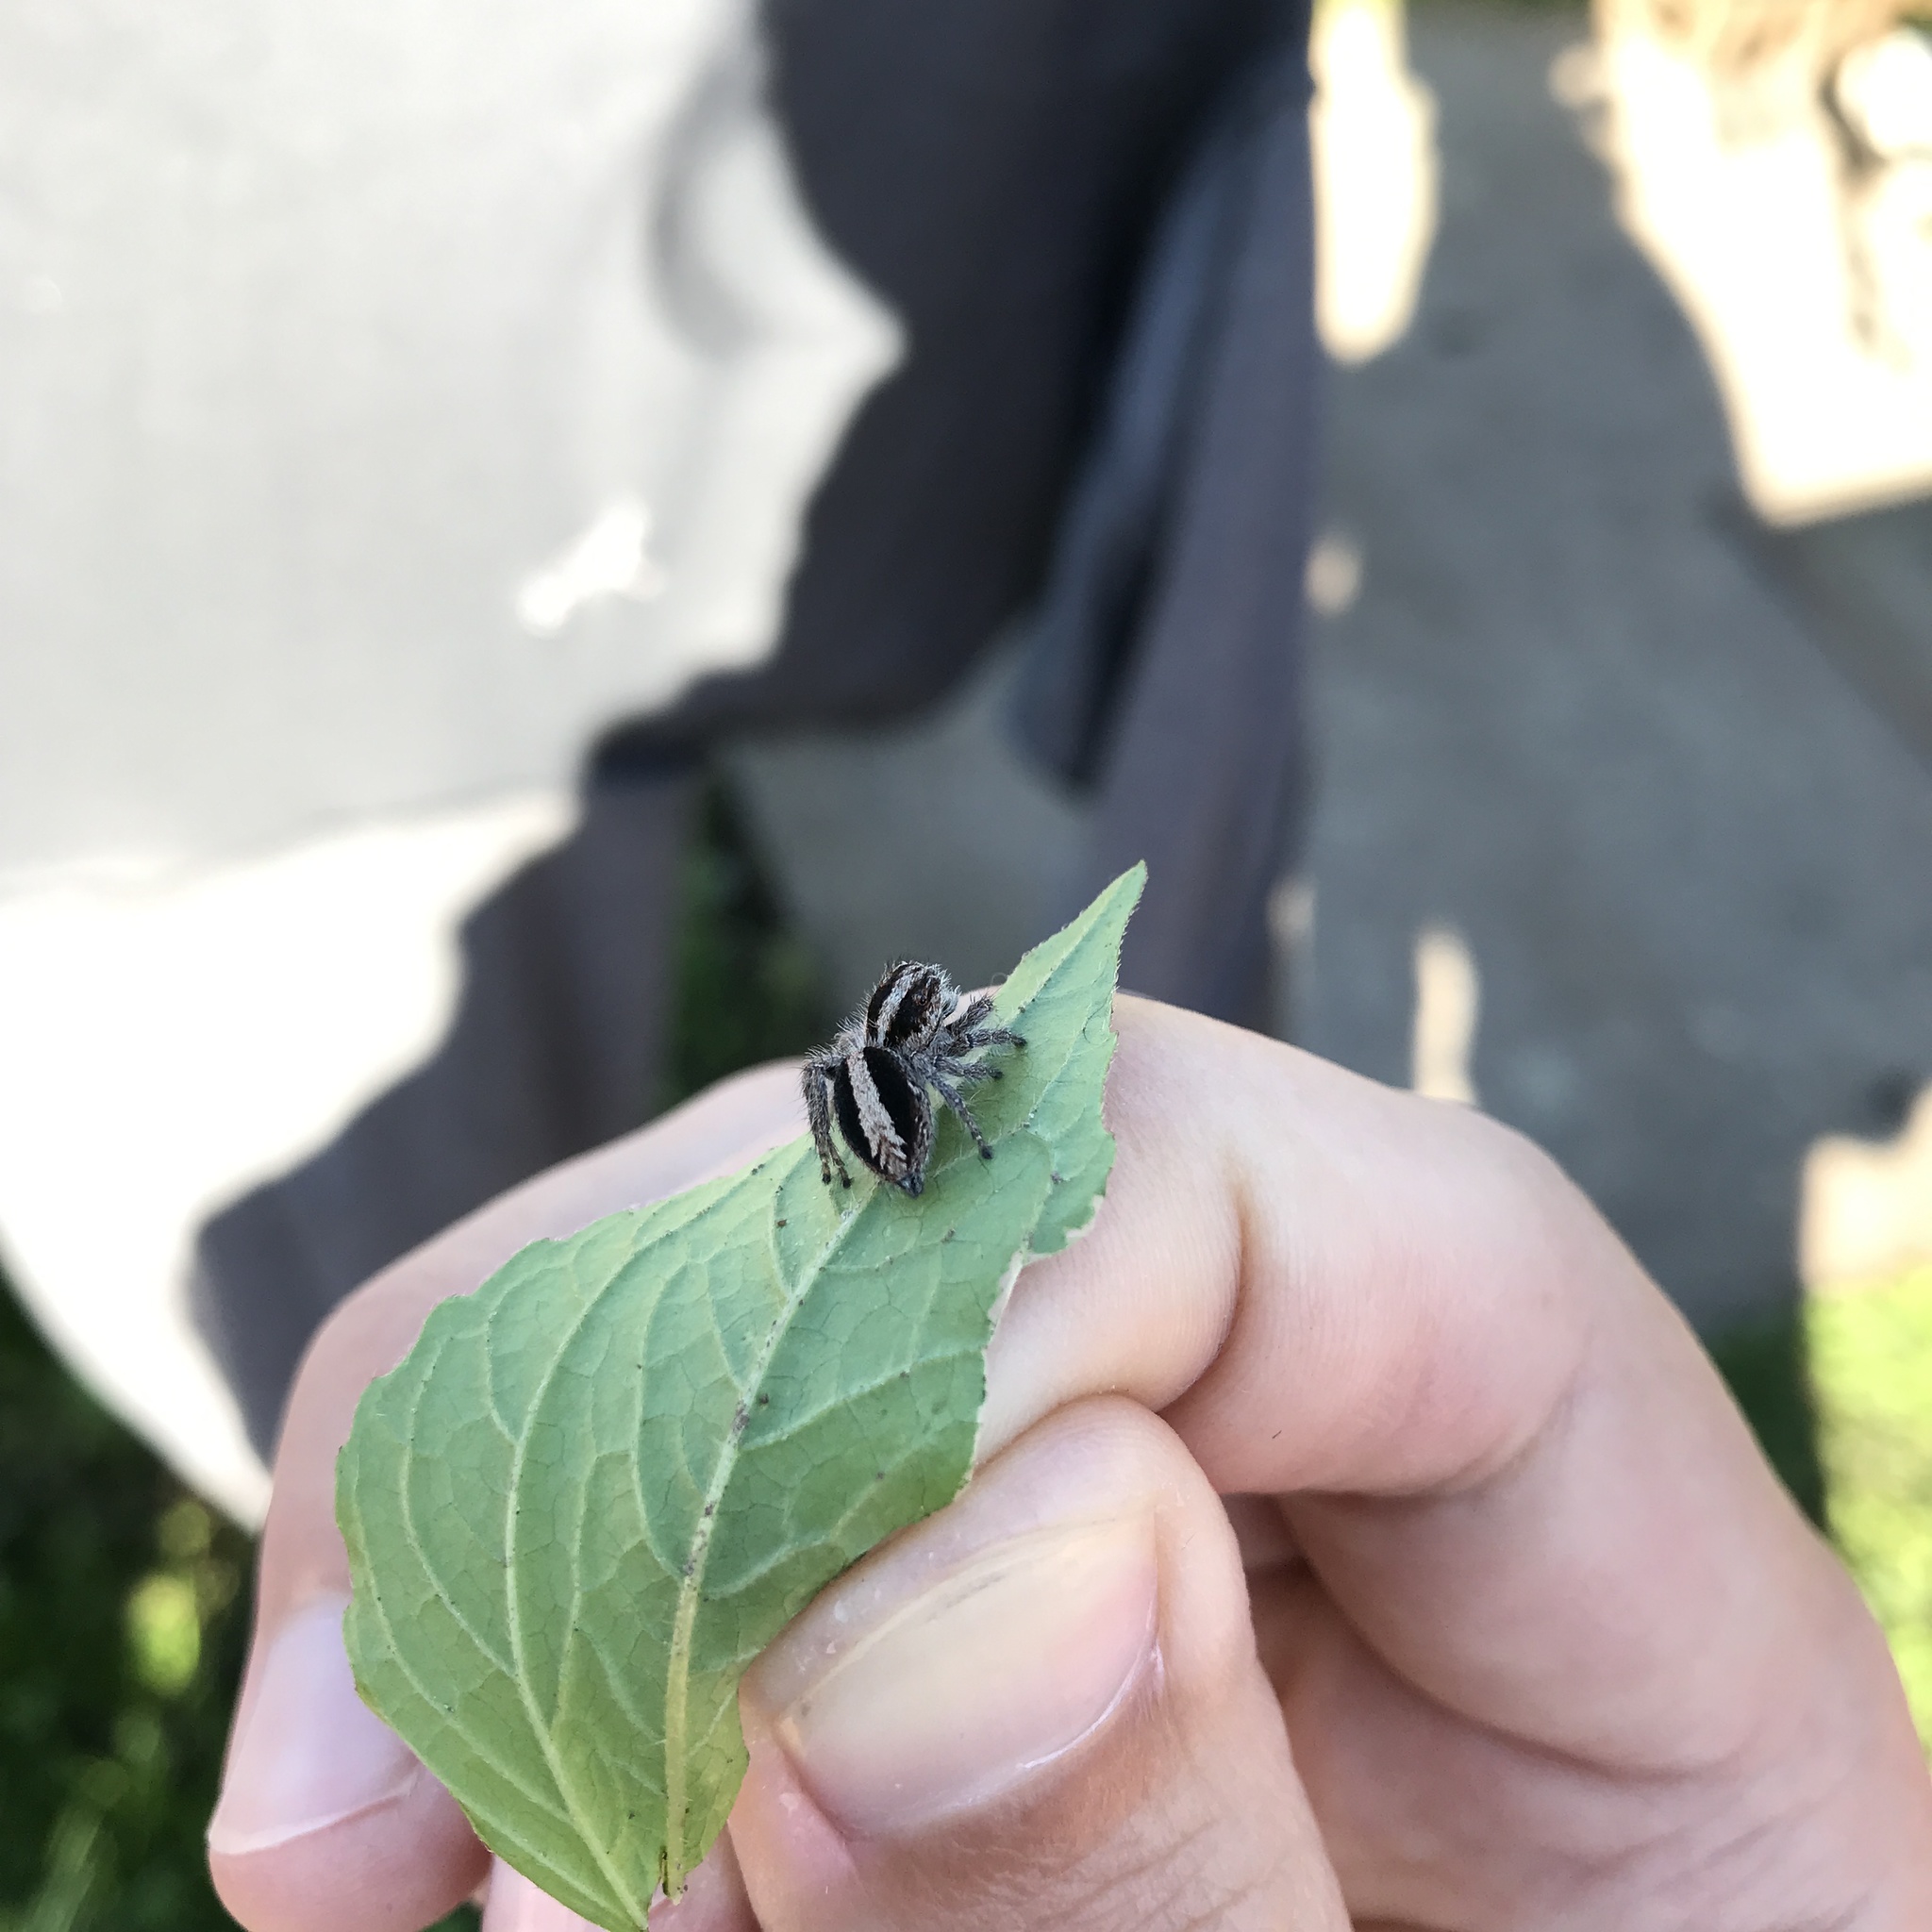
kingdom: Animalia
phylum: Arthropoda
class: Arachnida
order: Araneae
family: Salticidae
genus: Megafreya
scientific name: Megafreya sutrix
